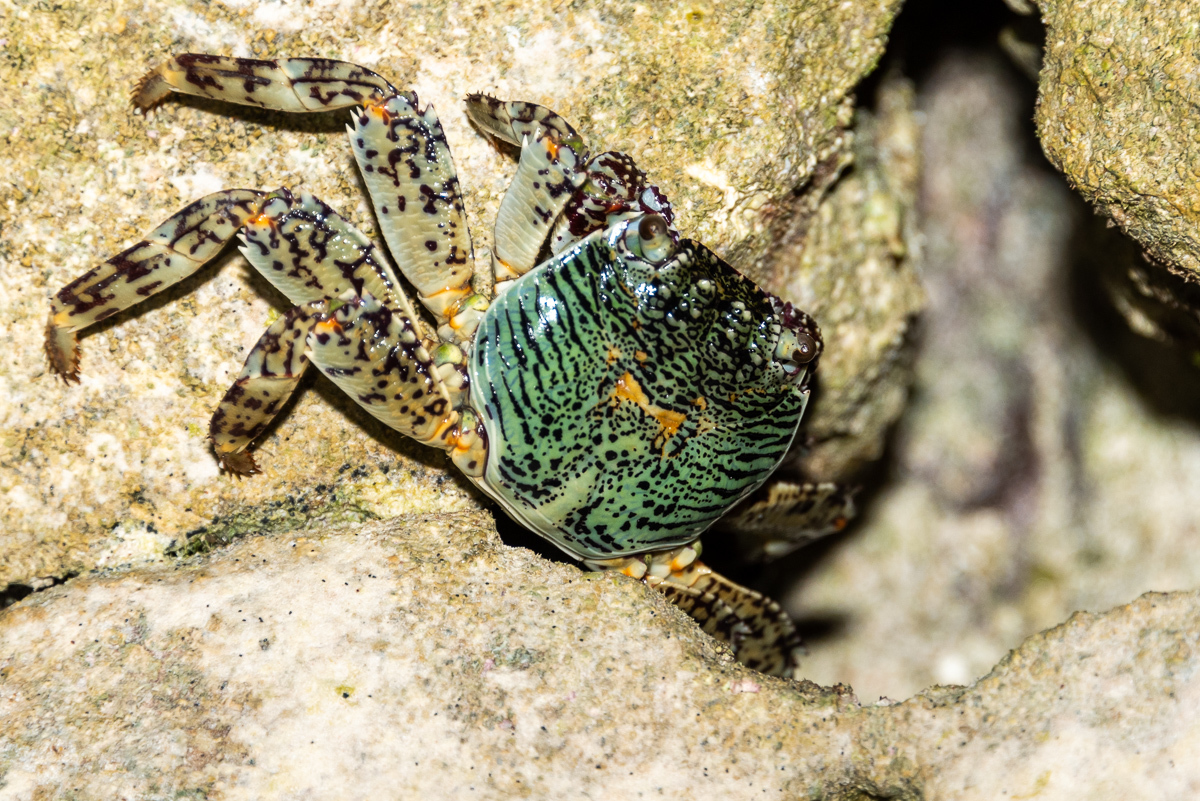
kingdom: Animalia
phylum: Arthropoda
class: Malacostraca
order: Decapoda
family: Grapsidae
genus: Grapsus
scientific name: Grapsus albolineatus
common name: Mottled lightfoot crab
